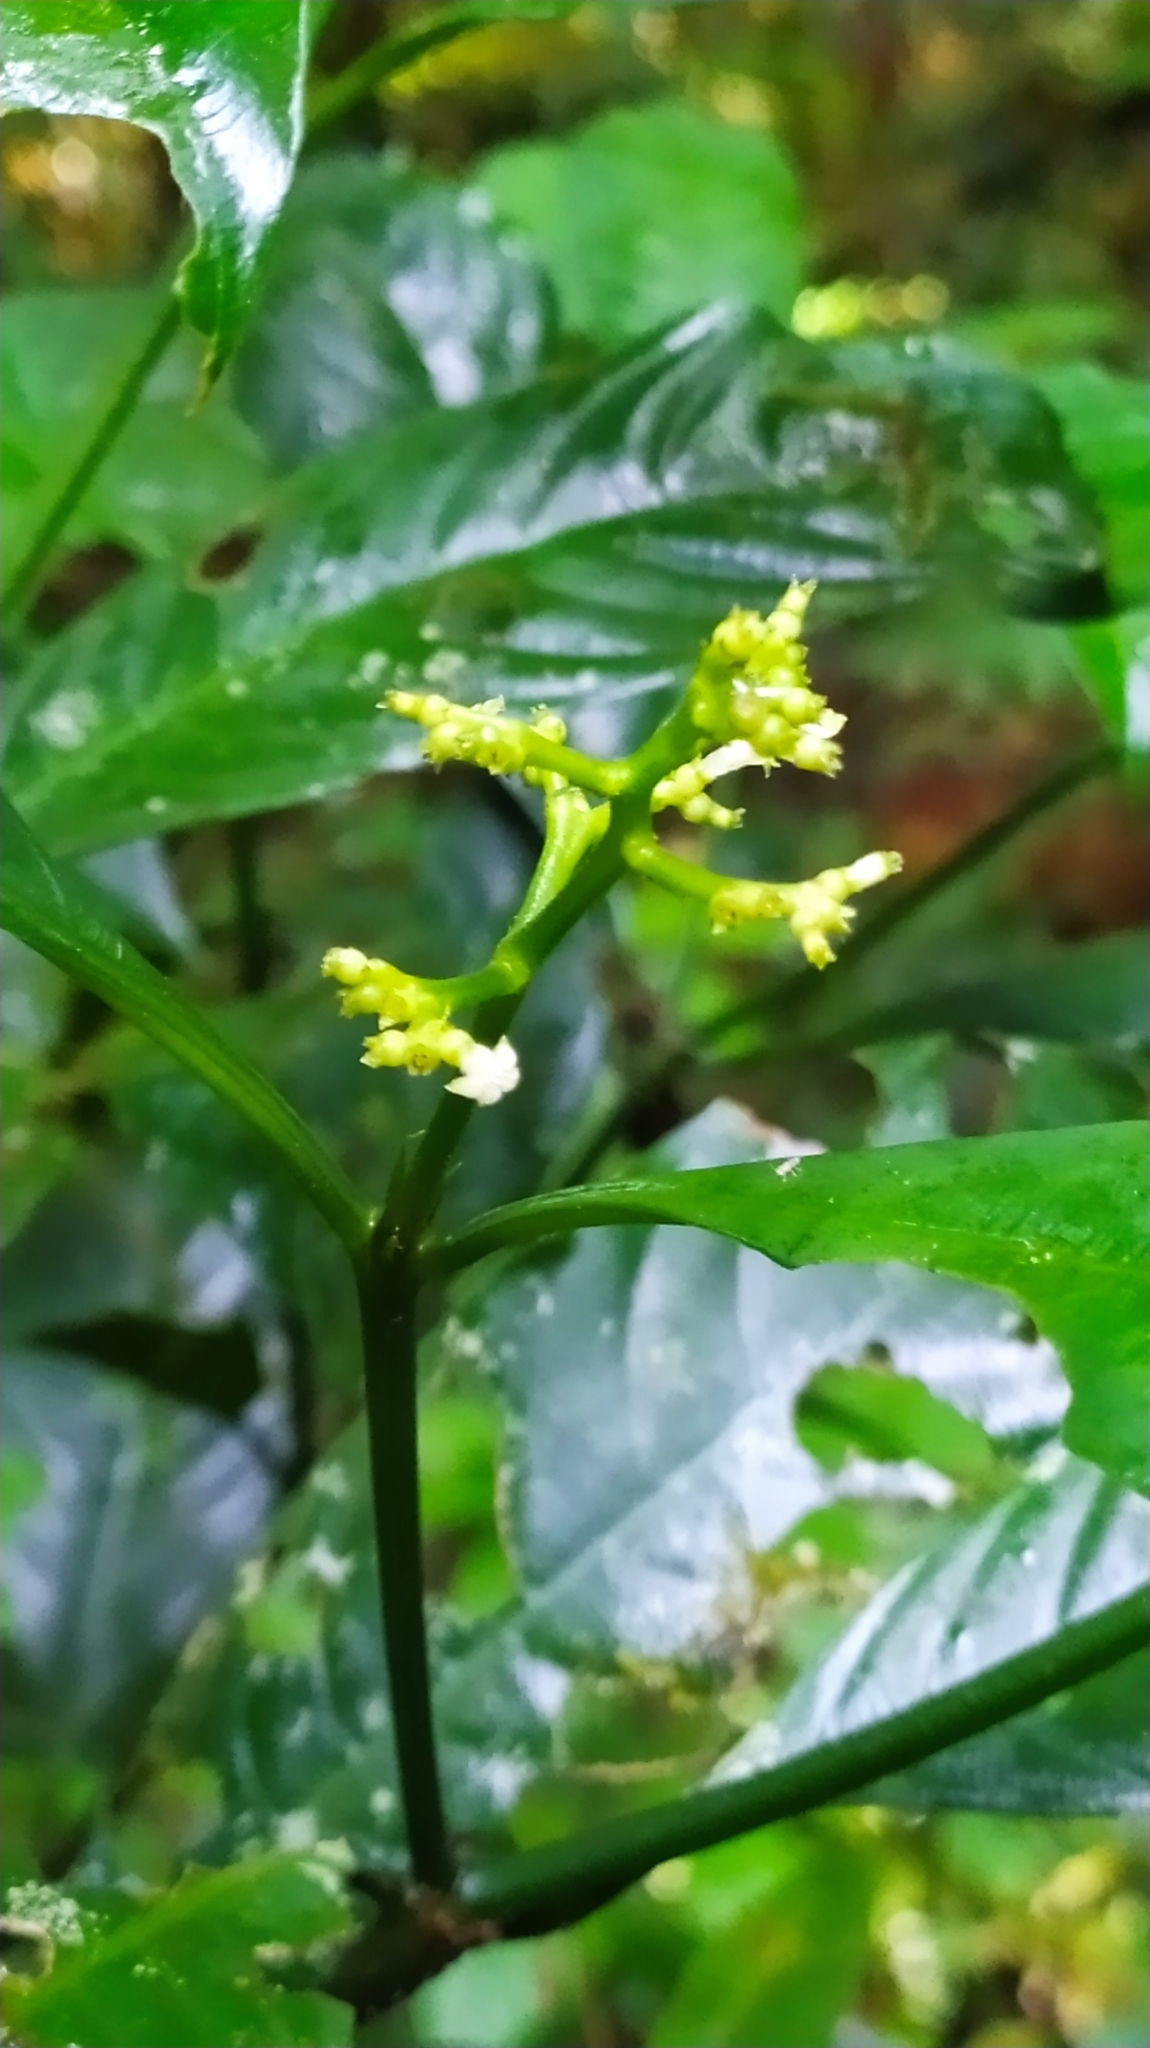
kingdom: Plantae
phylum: Tracheophyta
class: Magnoliopsida
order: Gentianales
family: Rubiaceae
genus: Palicourea
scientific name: Palicourea racemosa
